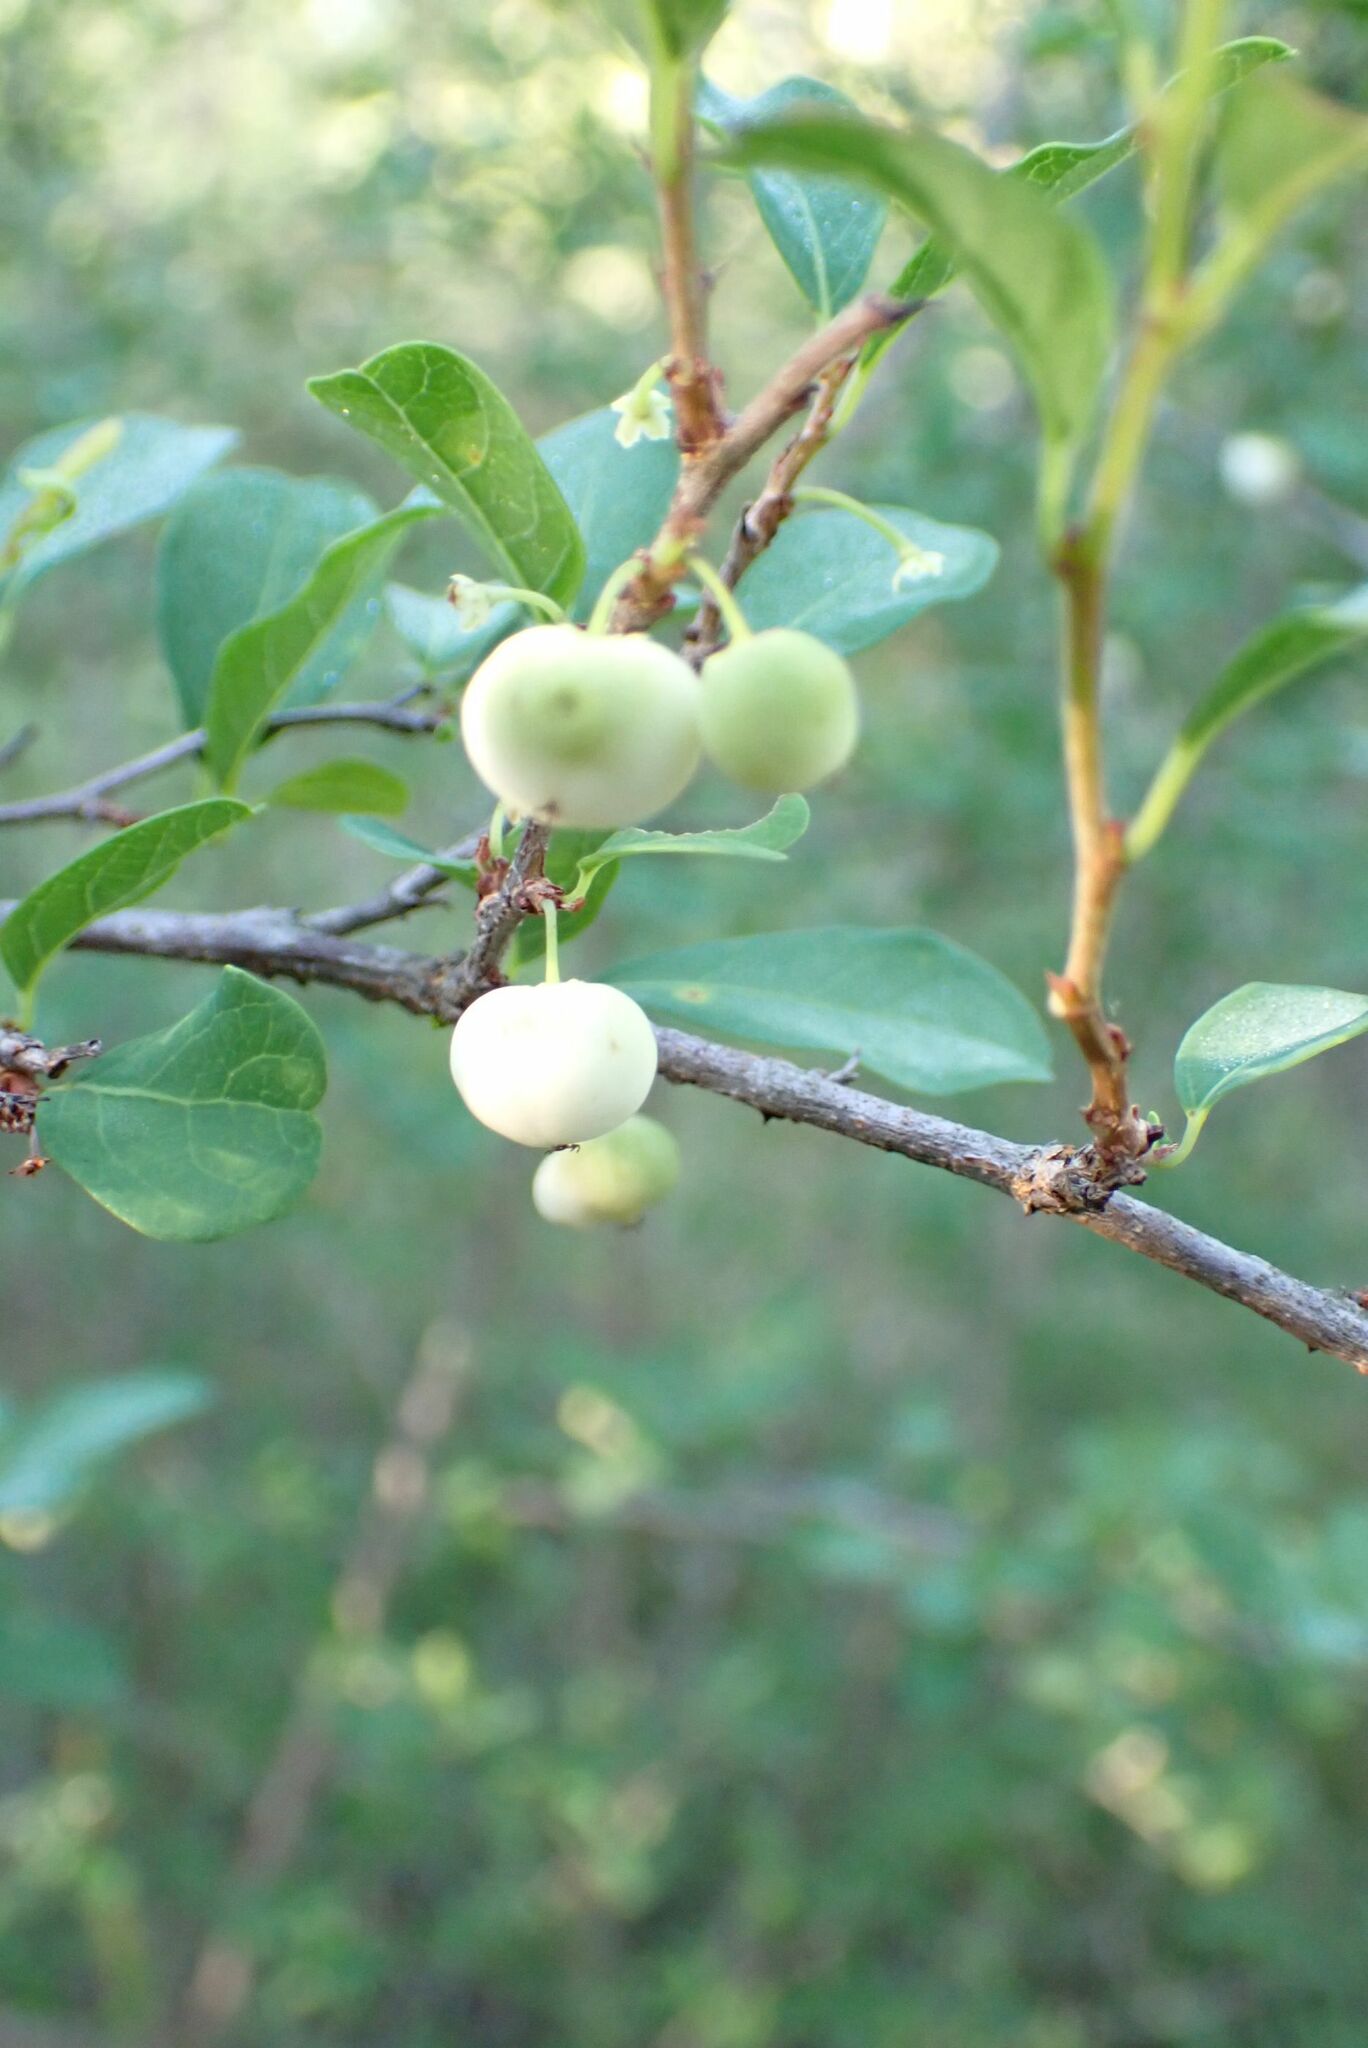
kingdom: Plantae
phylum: Tracheophyta
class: Magnoliopsida
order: Malpighiales
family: Phyllanthaceae
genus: Flueggea
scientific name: Flueggea virosa
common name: Common bushweed
